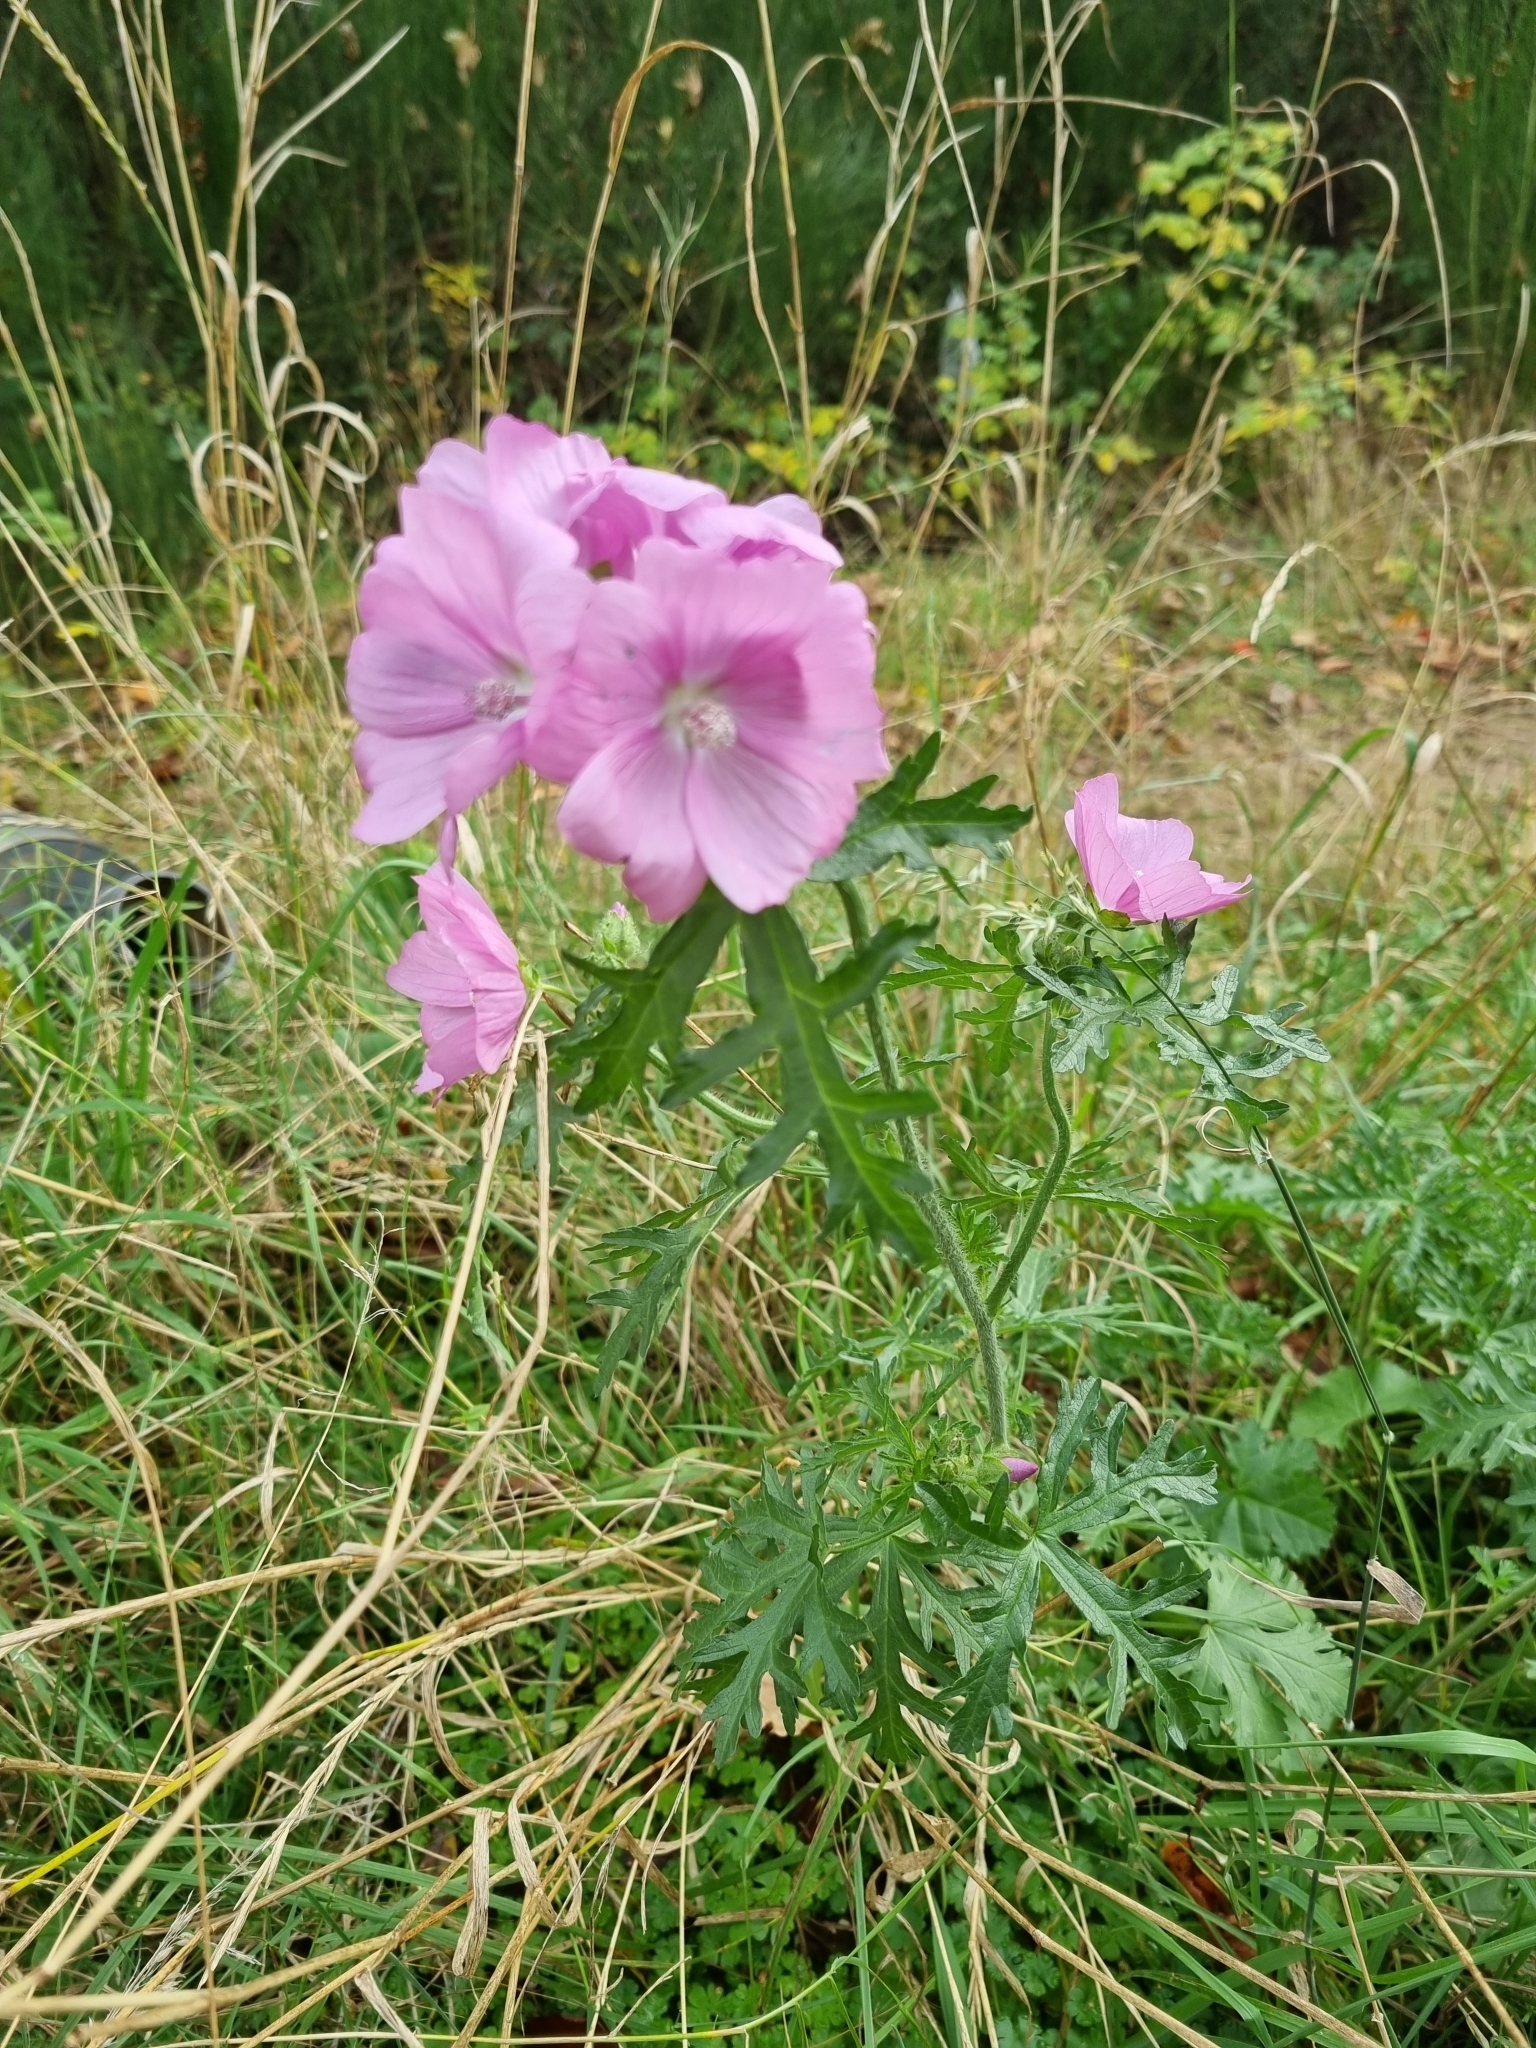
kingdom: Plantae
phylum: Tracheophyta
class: Magnoliopsida
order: Malvales
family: Malvaceae
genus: Malva
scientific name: Malva moschata
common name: Musk mallow
